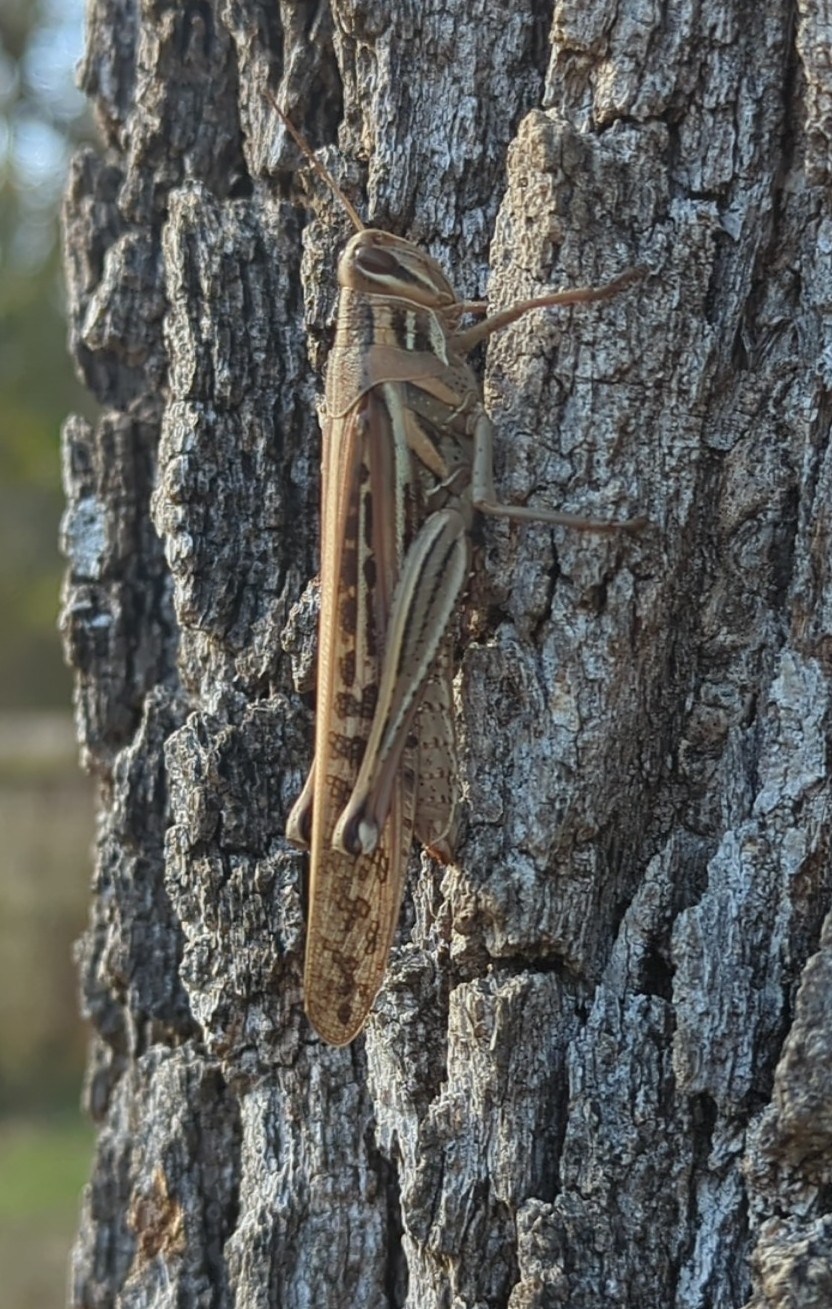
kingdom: Animalia
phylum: Arthropoda
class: Insecta
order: Orthoptera
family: Acrididae
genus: Schistocerca
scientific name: Schistocerca americana
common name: American bird locust
